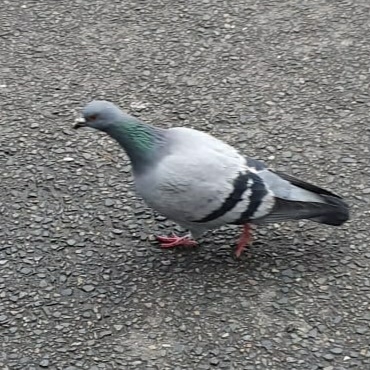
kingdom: Animalia
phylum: Chordata
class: Aves
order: Columbiformes
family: Columbidae
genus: Columba
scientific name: Columba livia
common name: Rock pigeon
